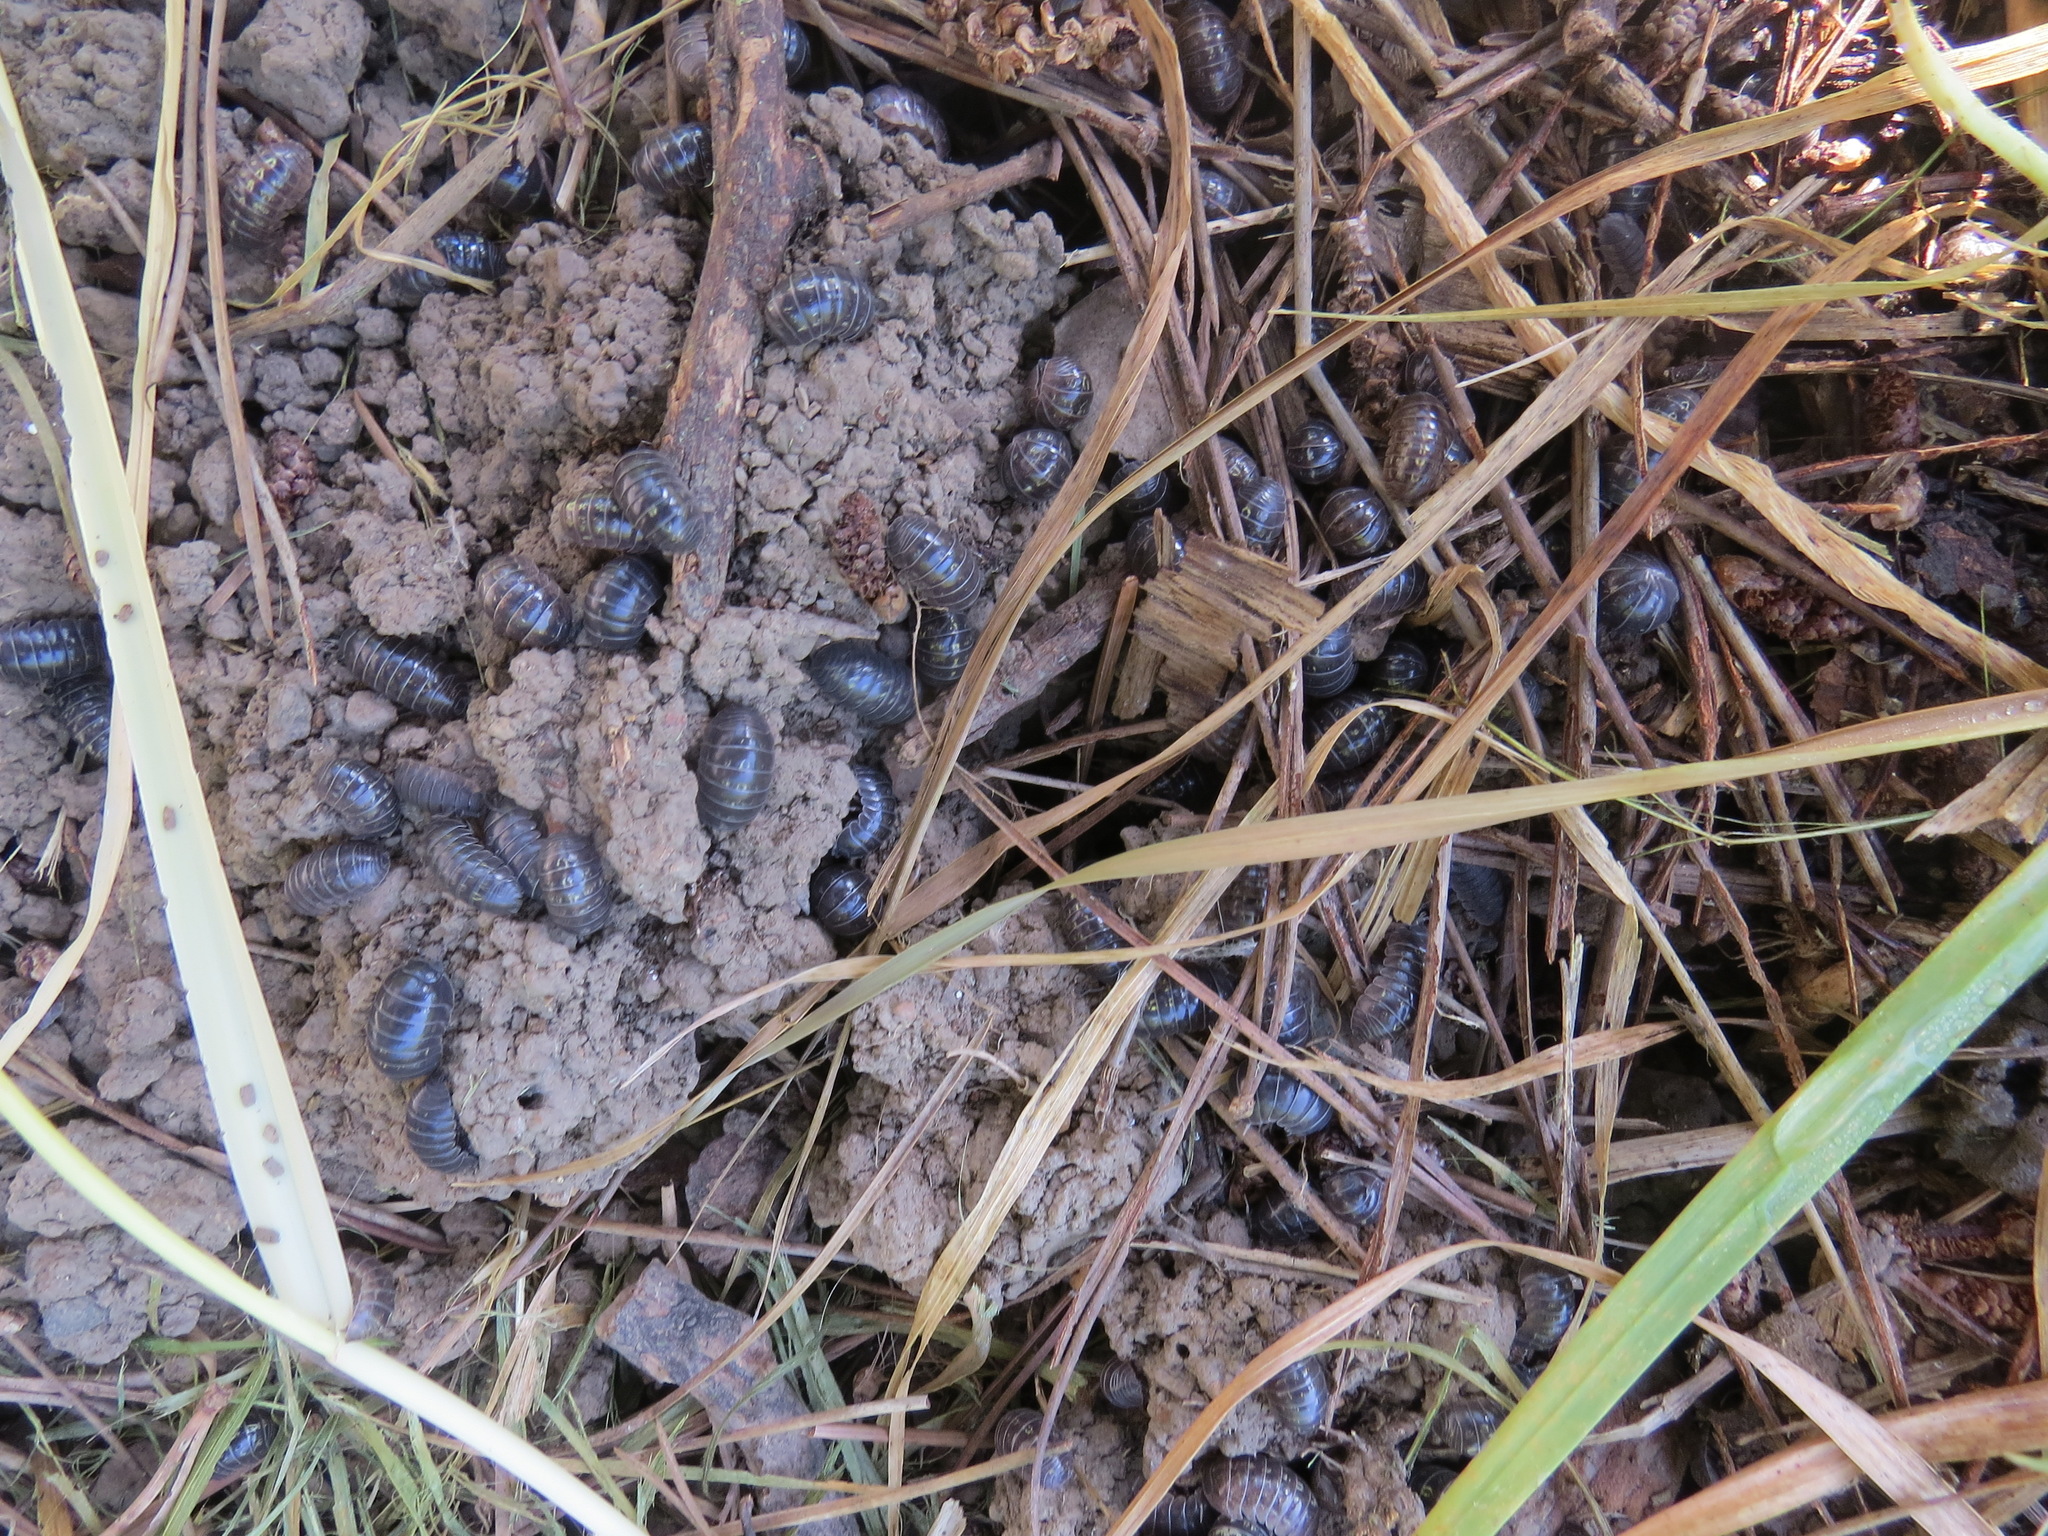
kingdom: Animalia
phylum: Arthropoda
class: Malacostraca
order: Isopoda
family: Armadillidiidae
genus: Armadillidium
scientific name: Armadillidium vulgare
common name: Common pill woodlouse
